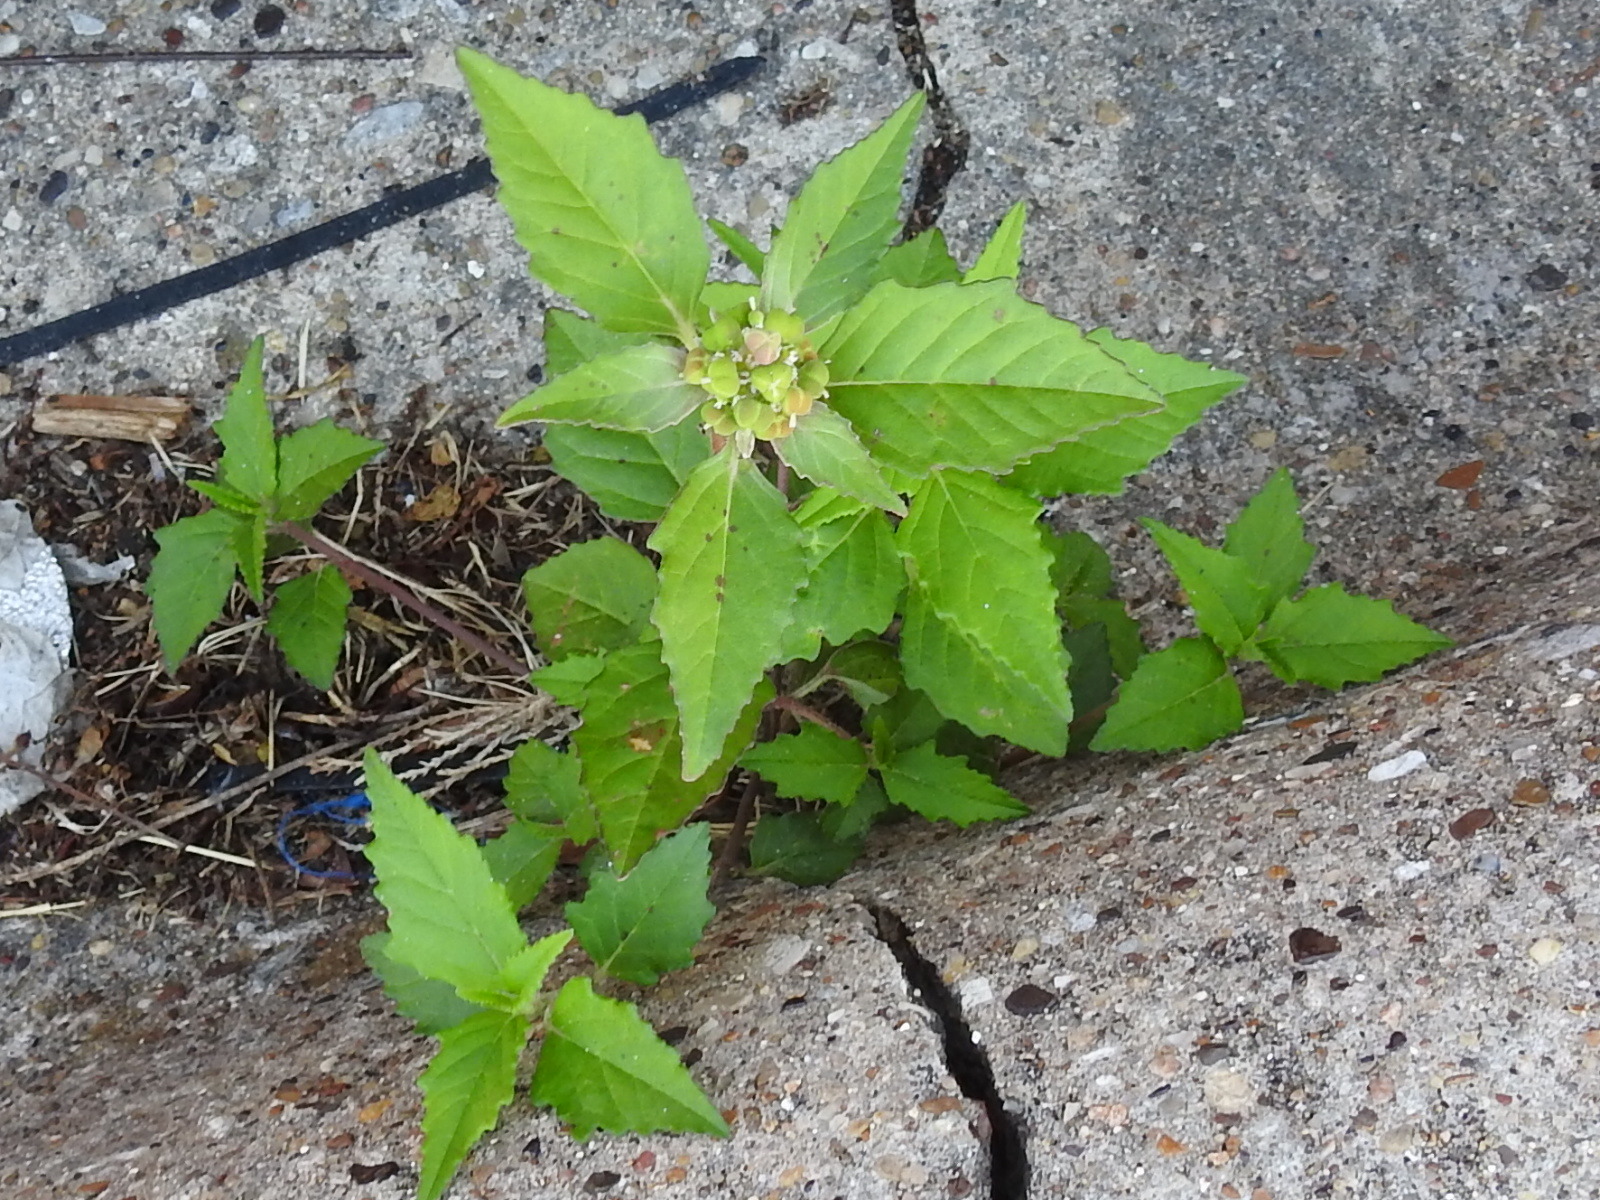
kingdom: Plantae
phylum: Tracheophyta
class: Magnoliopsida
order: Malpighiales
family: Euphorbiaceae
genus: Euphorbia
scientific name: Euphorbia dentata
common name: Dentate spurge
